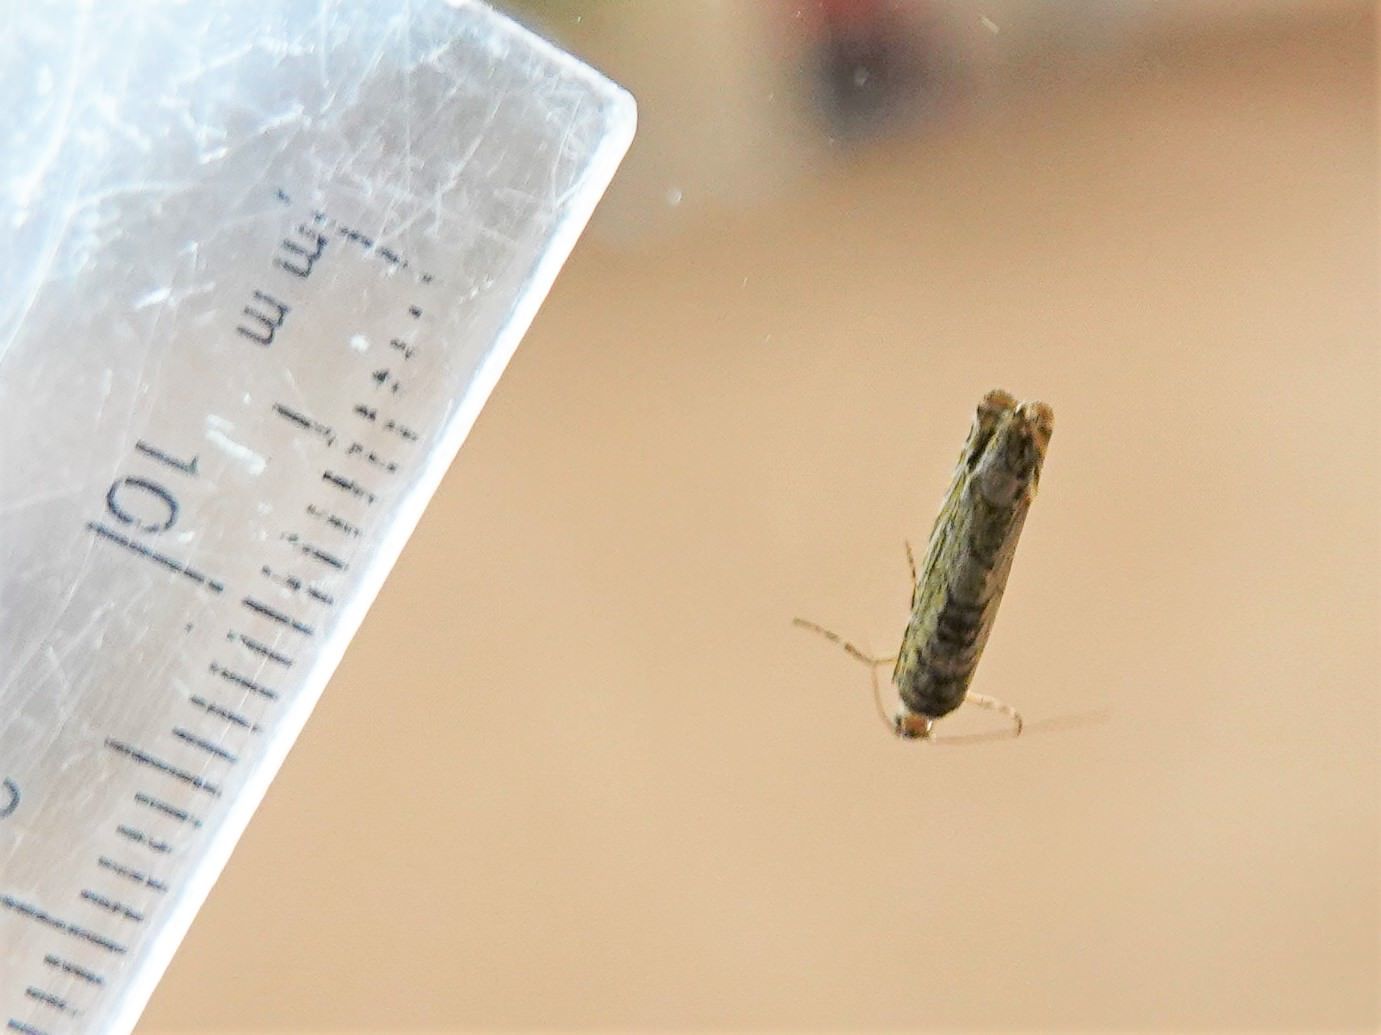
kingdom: Animalia
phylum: Arthropoda
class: Insecta
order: Lepidoptera
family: Plutellidae
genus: Doxophyrtis
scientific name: Doxophyrtis hydrocosma
